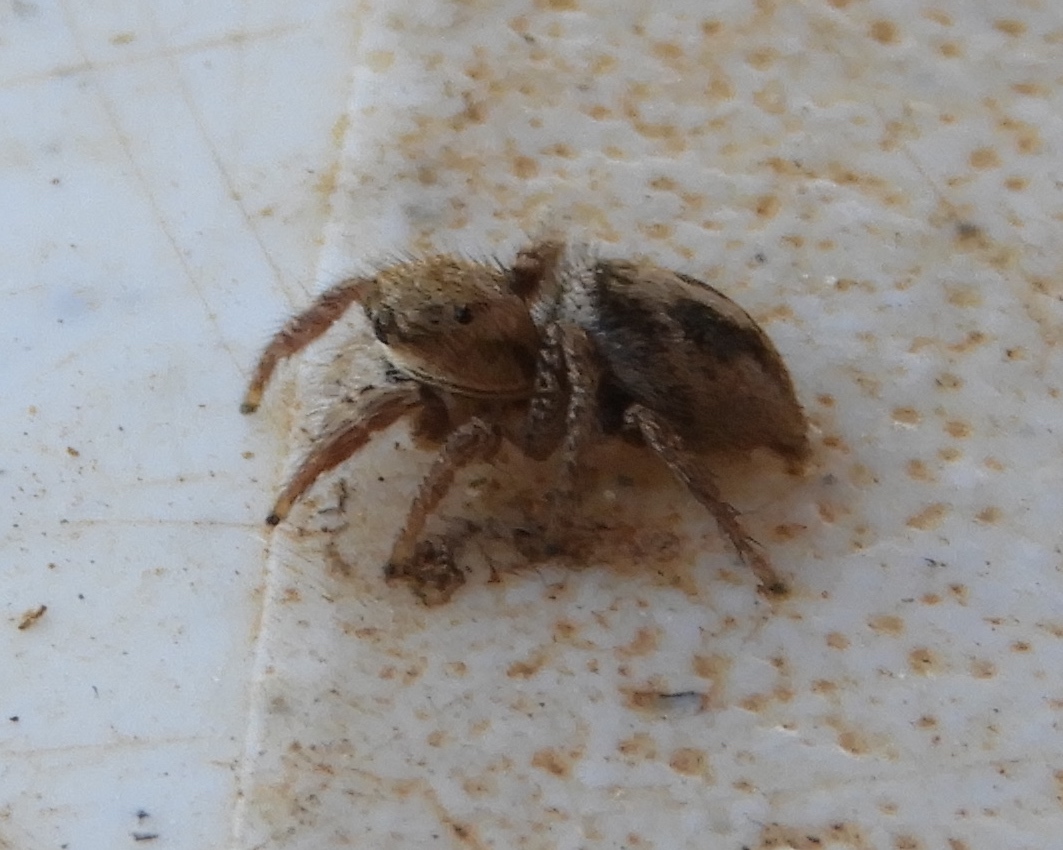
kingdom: Animalia
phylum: Arthropoda
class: Arachnida
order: Araneae
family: Salticidae
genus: Habronattus
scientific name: Habronattus
